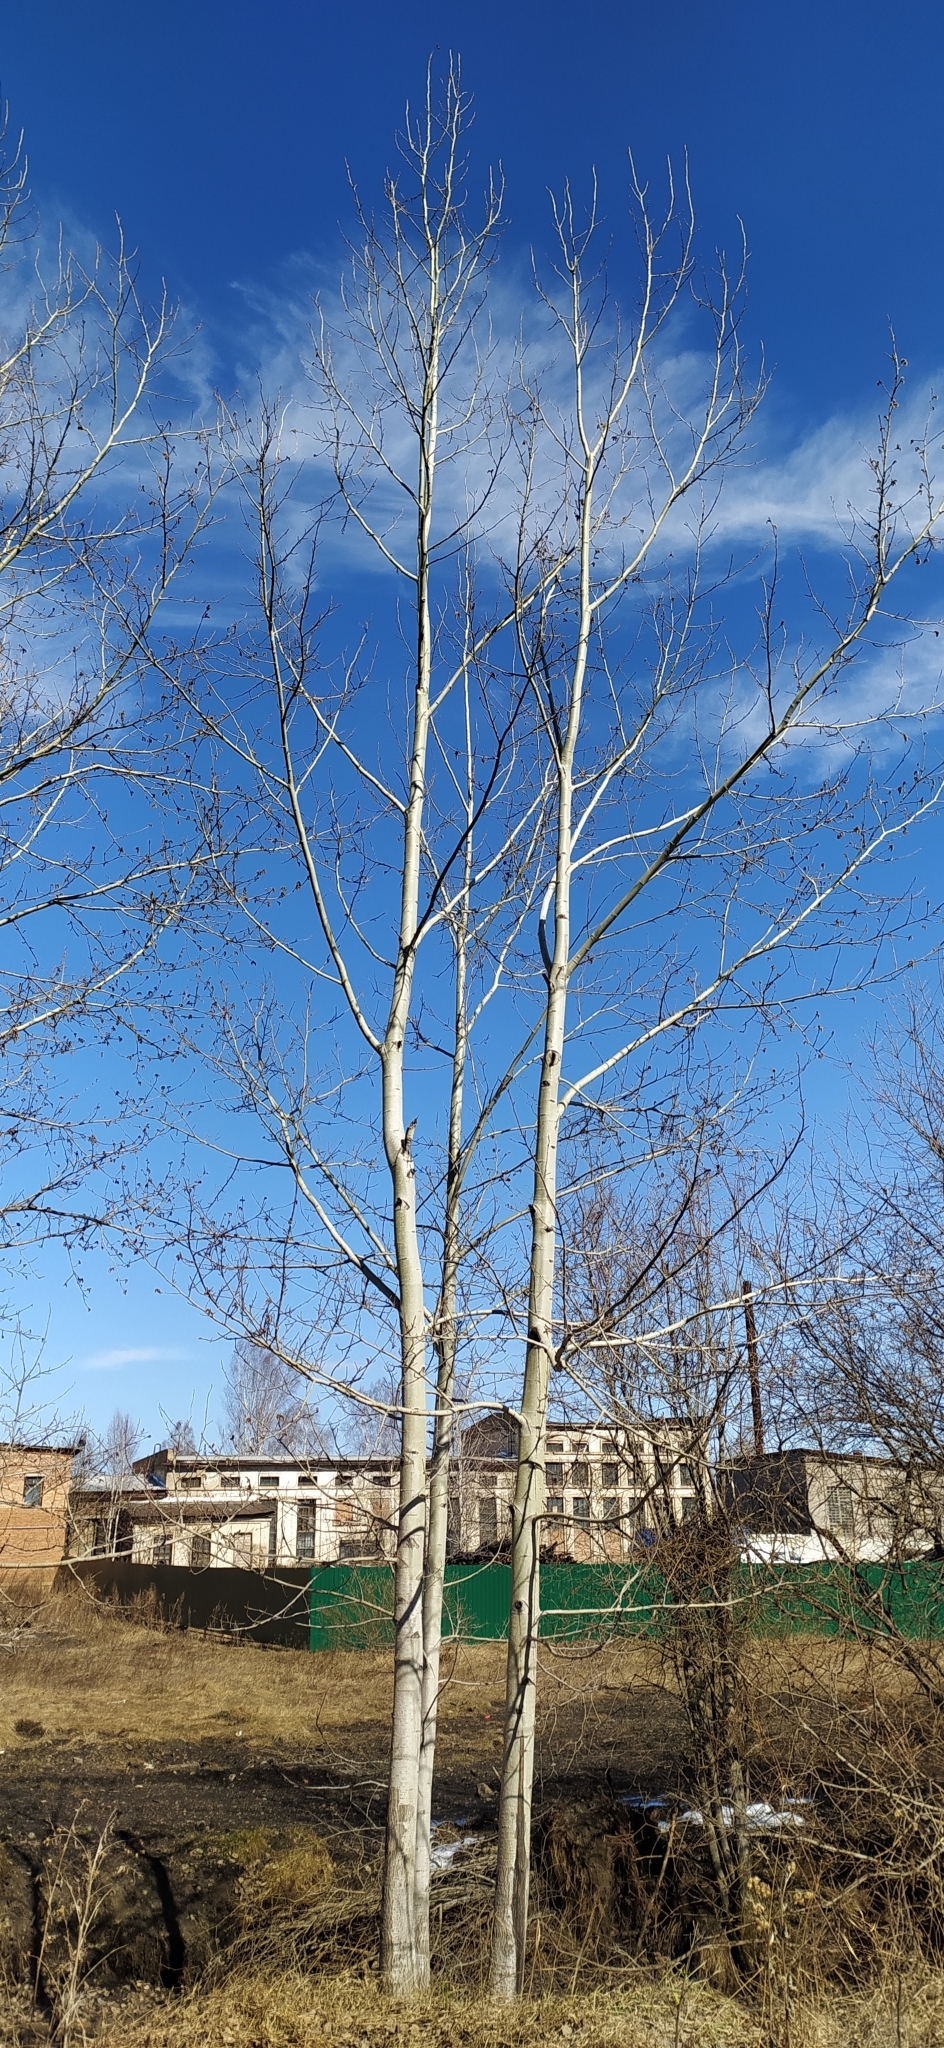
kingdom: Plantae
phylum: Tracheophyta
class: Magnoliopsida
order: Malpighiales
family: Salicaceae
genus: Populus
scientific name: Populus tremula
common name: European aspen
